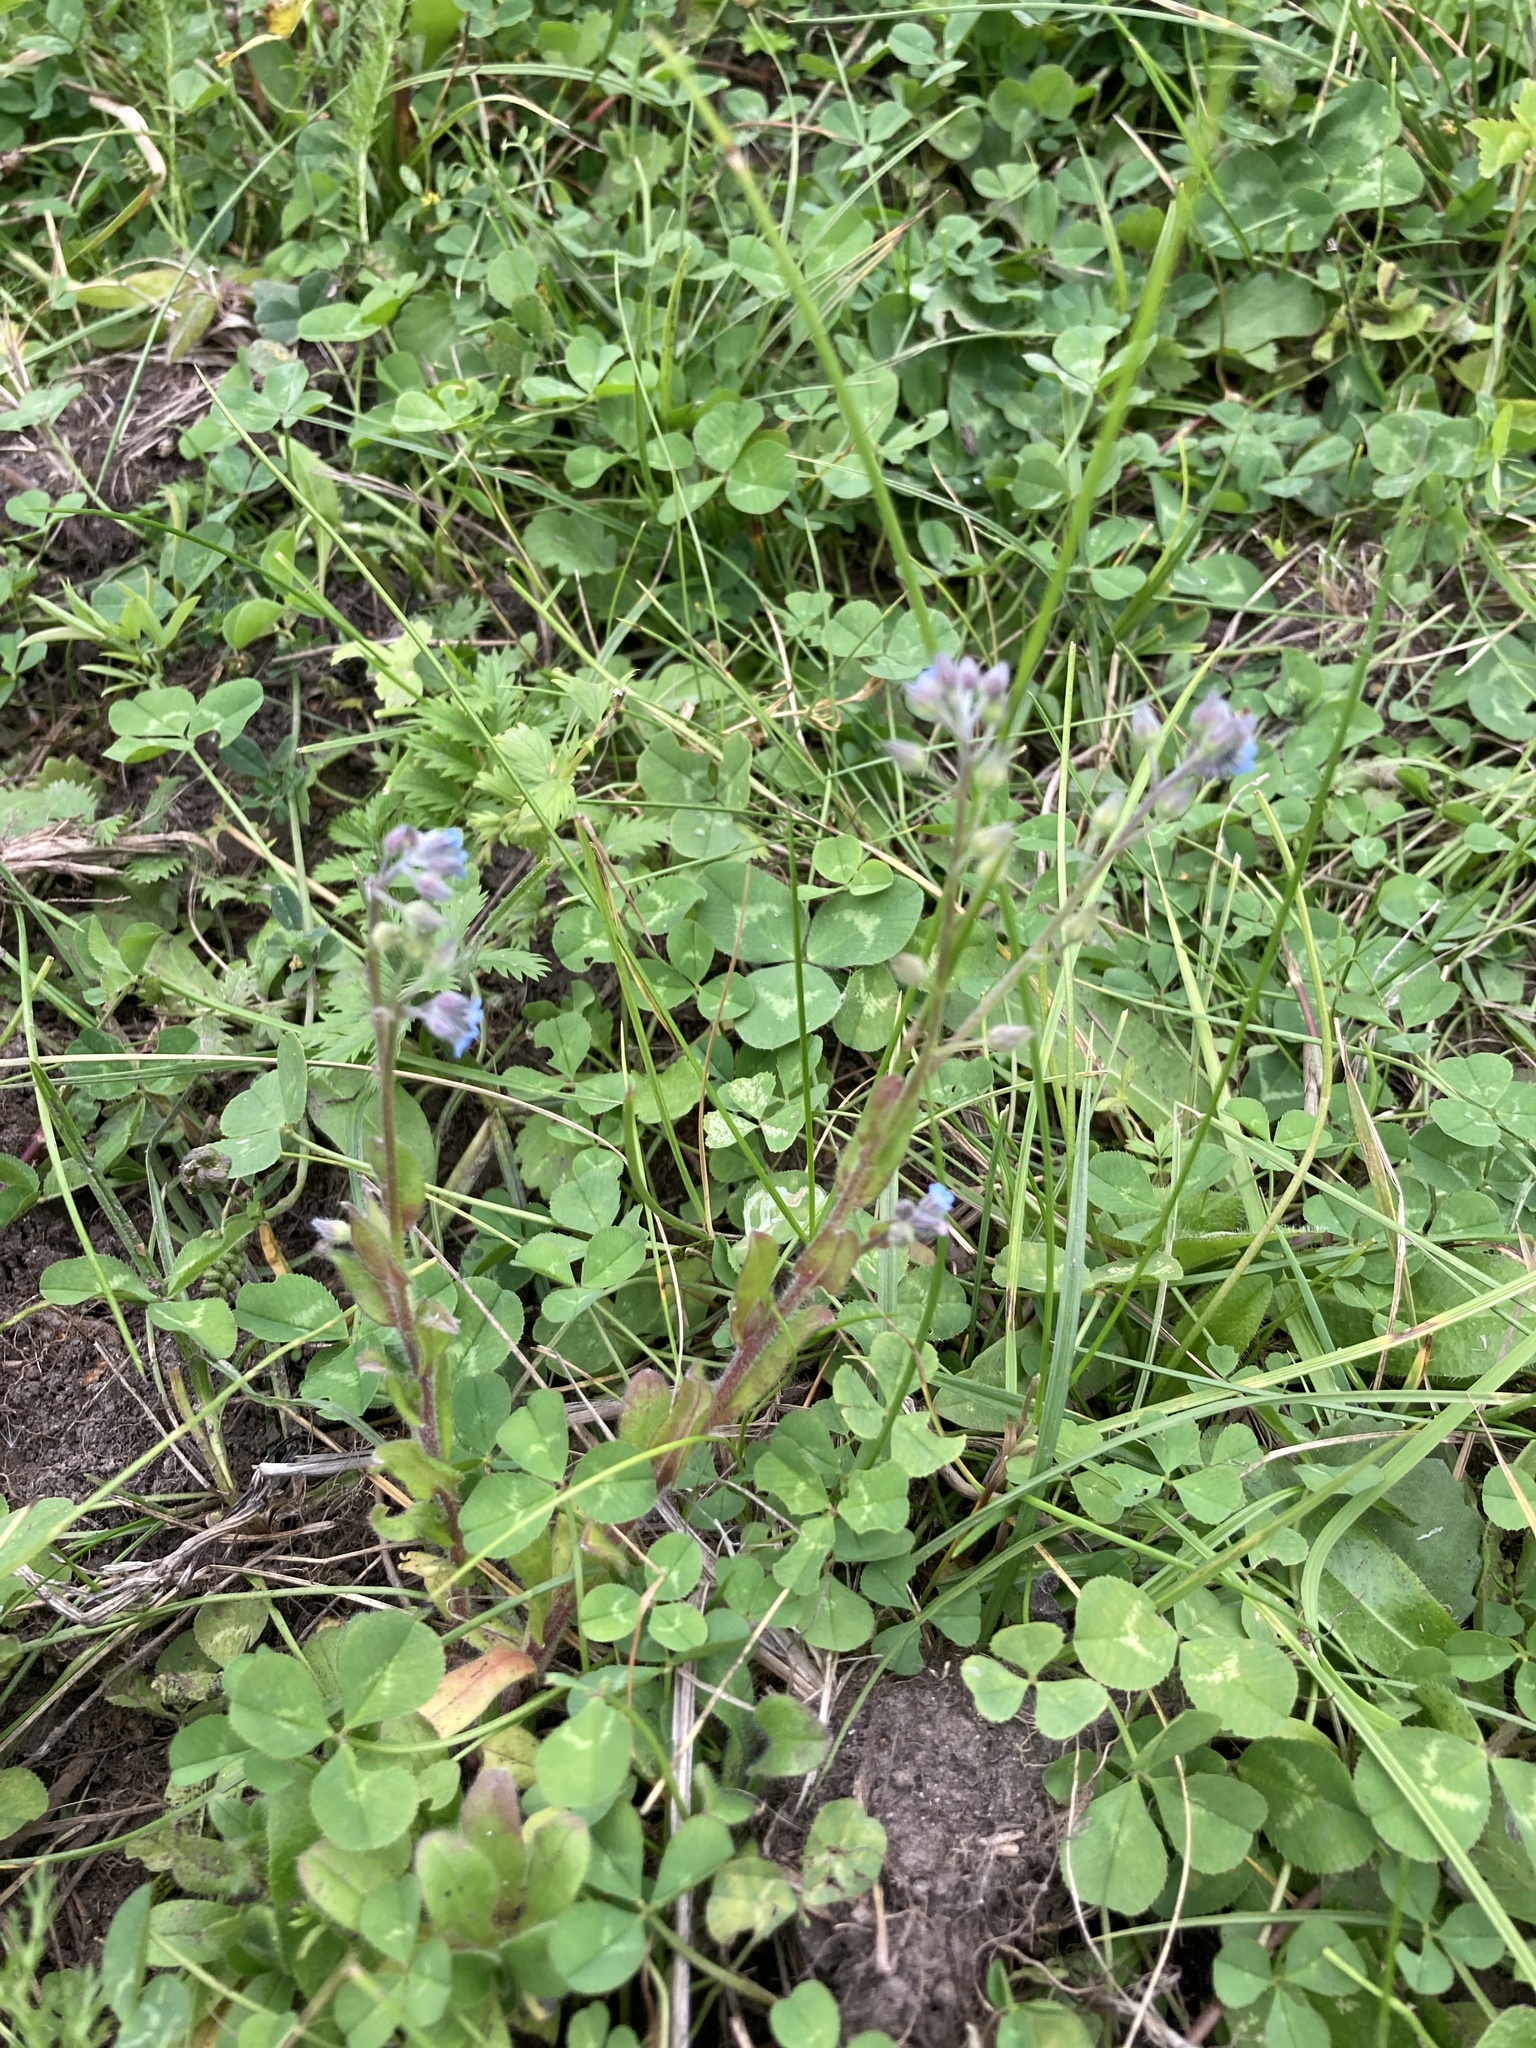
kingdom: Plantae
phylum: Tracheophyta
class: Magnoliopsida
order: Boraginales
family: Boraginaceae
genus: Myosotis
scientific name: Myosotis arvensis
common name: Field forget-me-not
